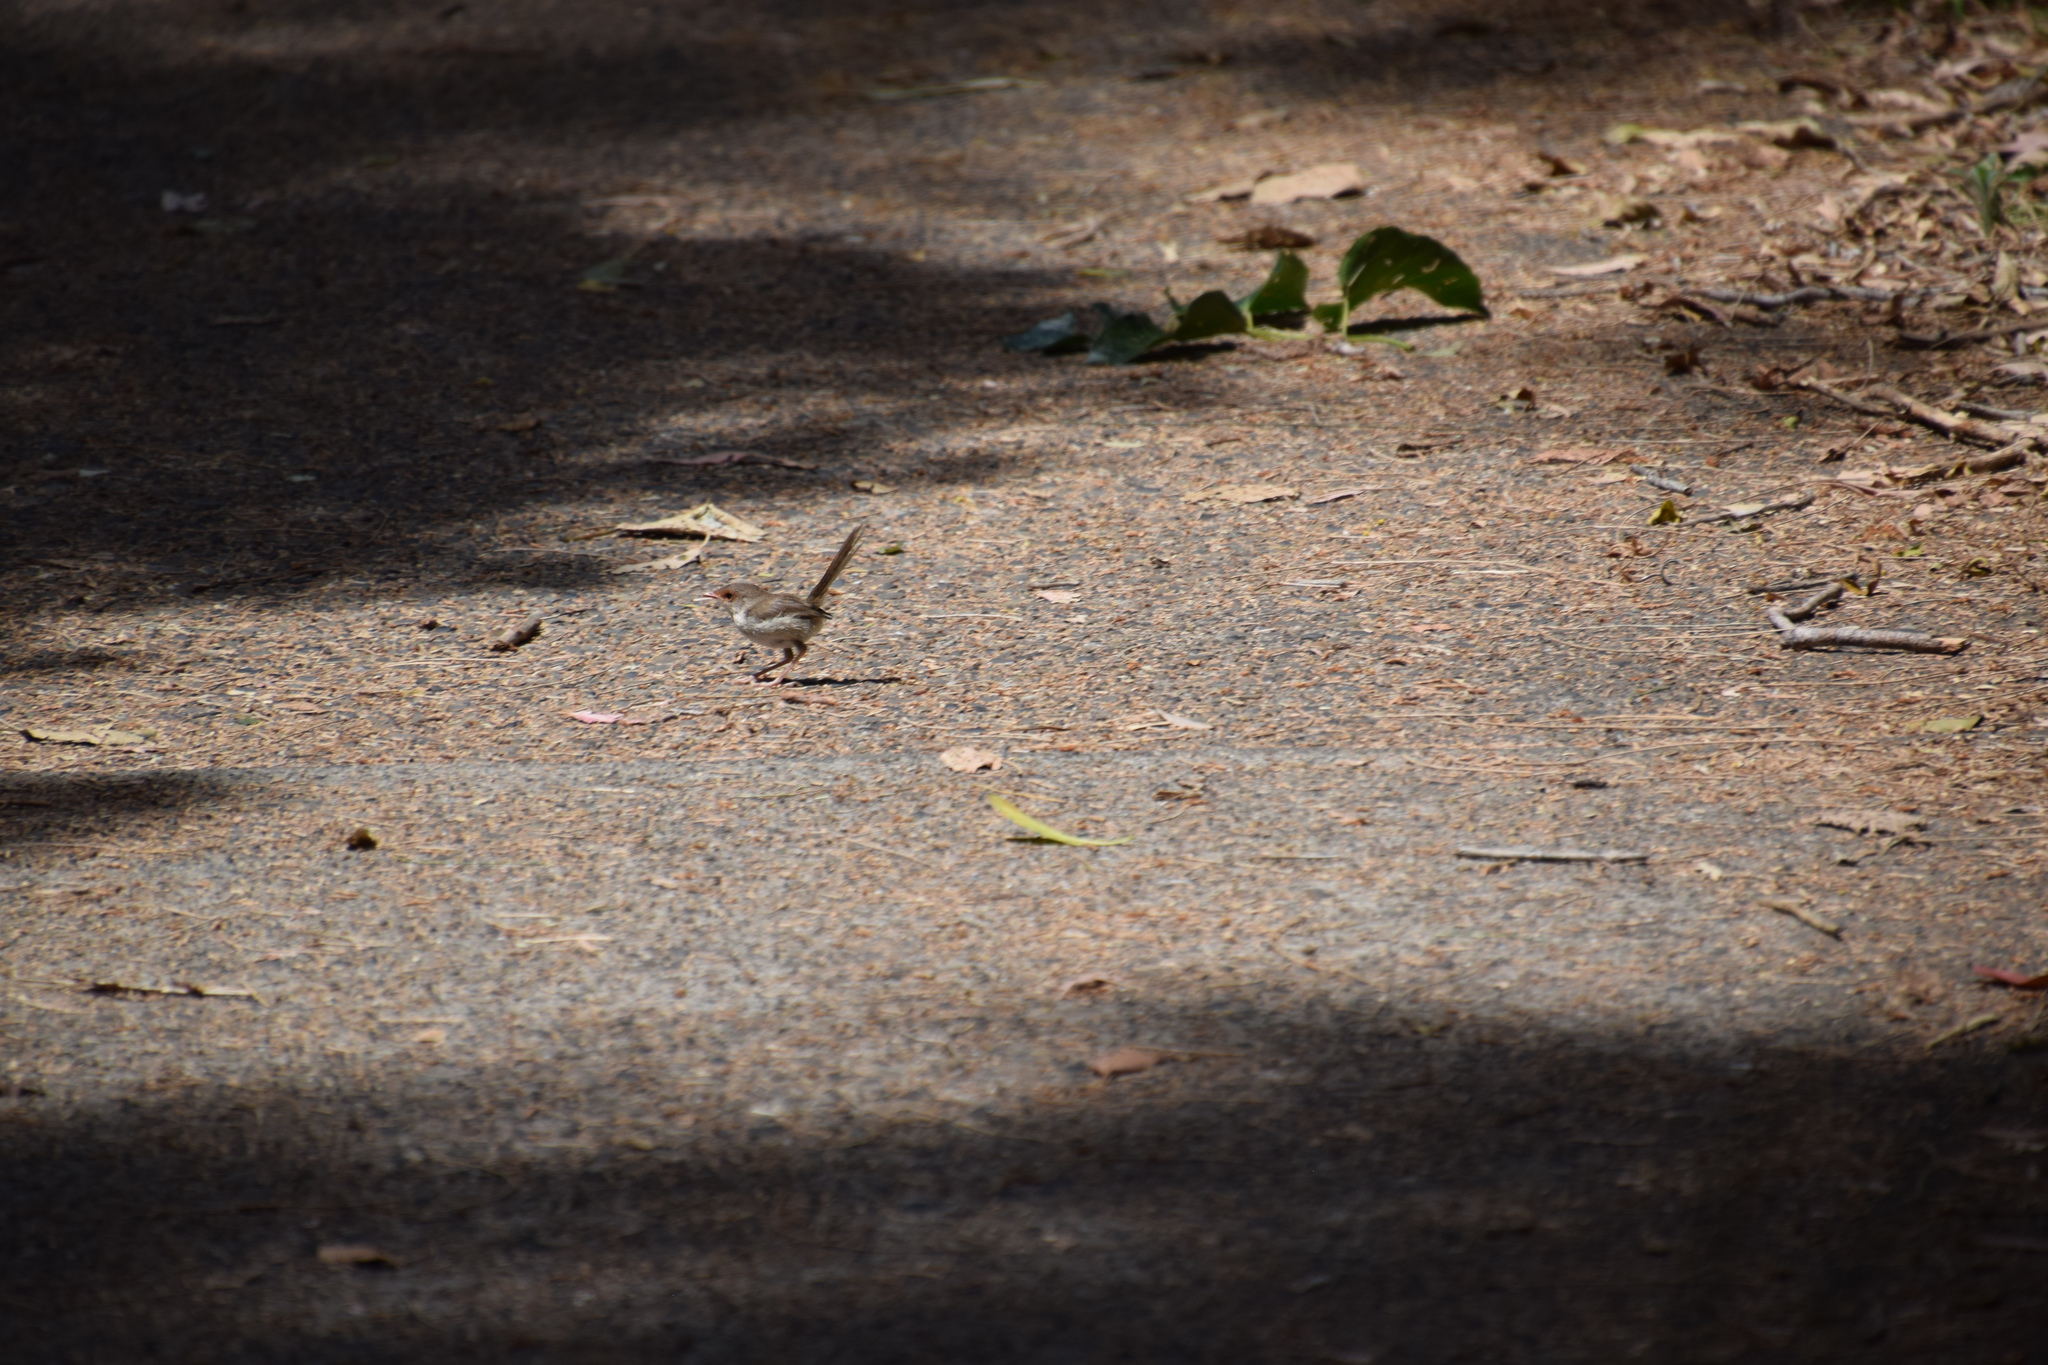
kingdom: Animalia
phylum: Chordata
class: Aves
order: Passeriformes
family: Maluridae
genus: Malurus
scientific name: Malurus cyaneus
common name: Superb fairywren
